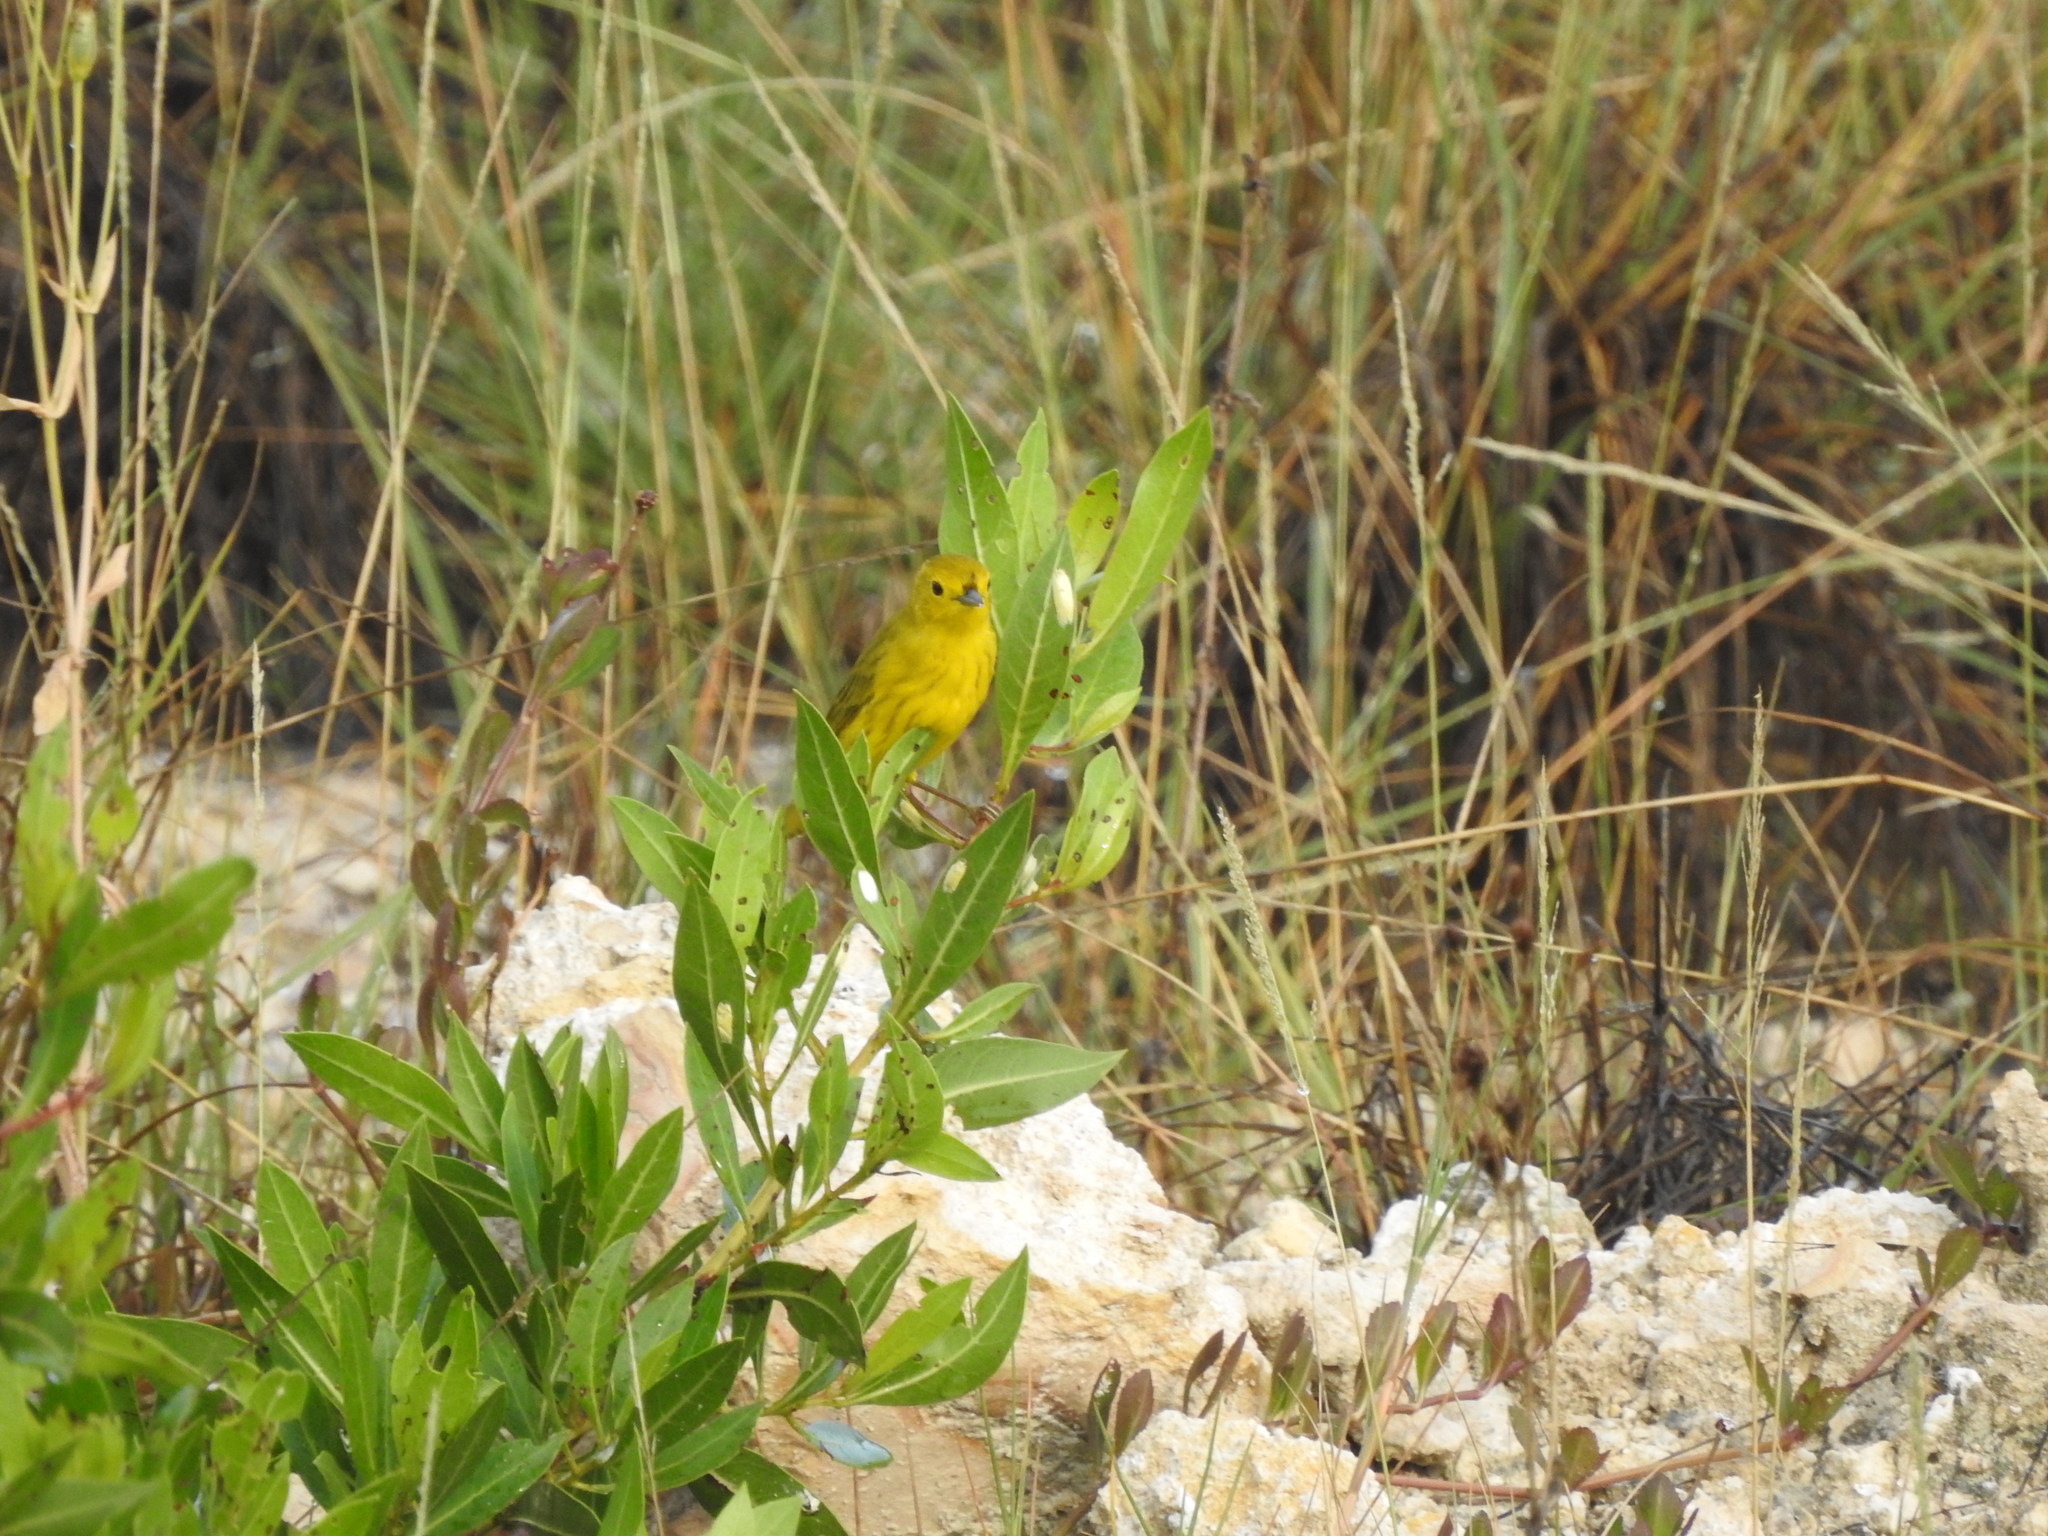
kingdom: Animalia
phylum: Chordata
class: Aves
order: Passeriformes
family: Parulidae
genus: Setophaga
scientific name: Setophaga petechia
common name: Yellow warbler
